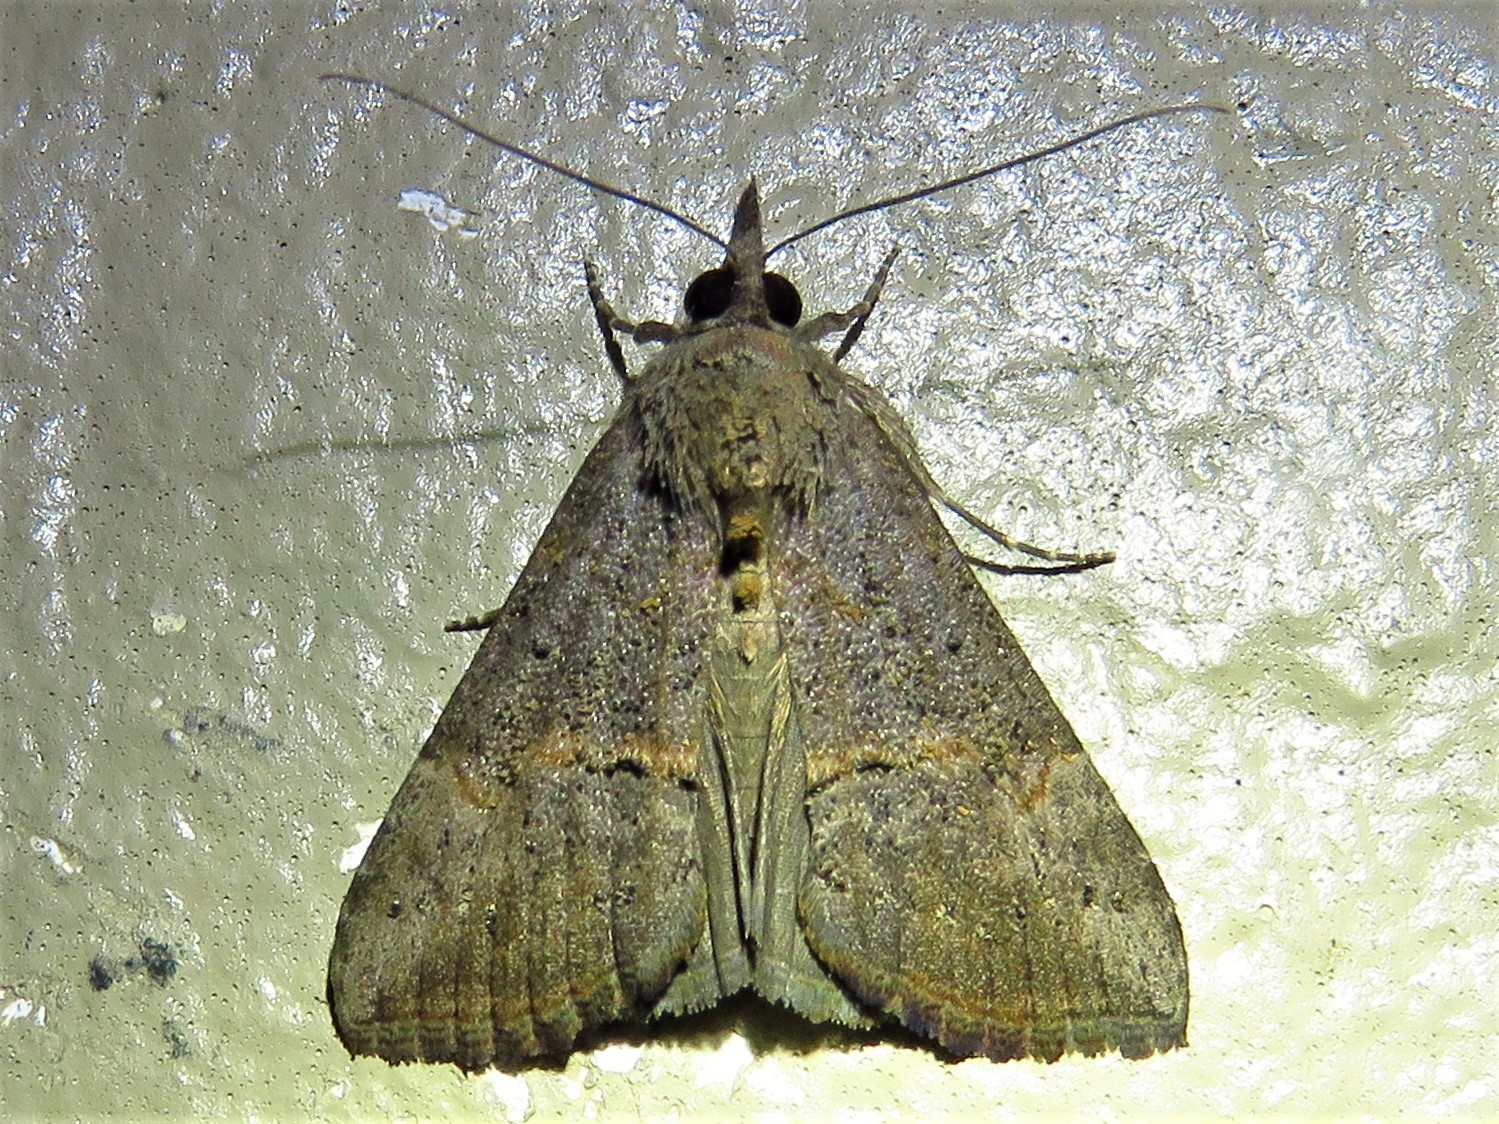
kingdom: Animalia
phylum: Arthropoda
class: Insecta
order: Lepidoptera
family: Erebidae
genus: Hypena
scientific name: Hypena scabra
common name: Green cloverworm
